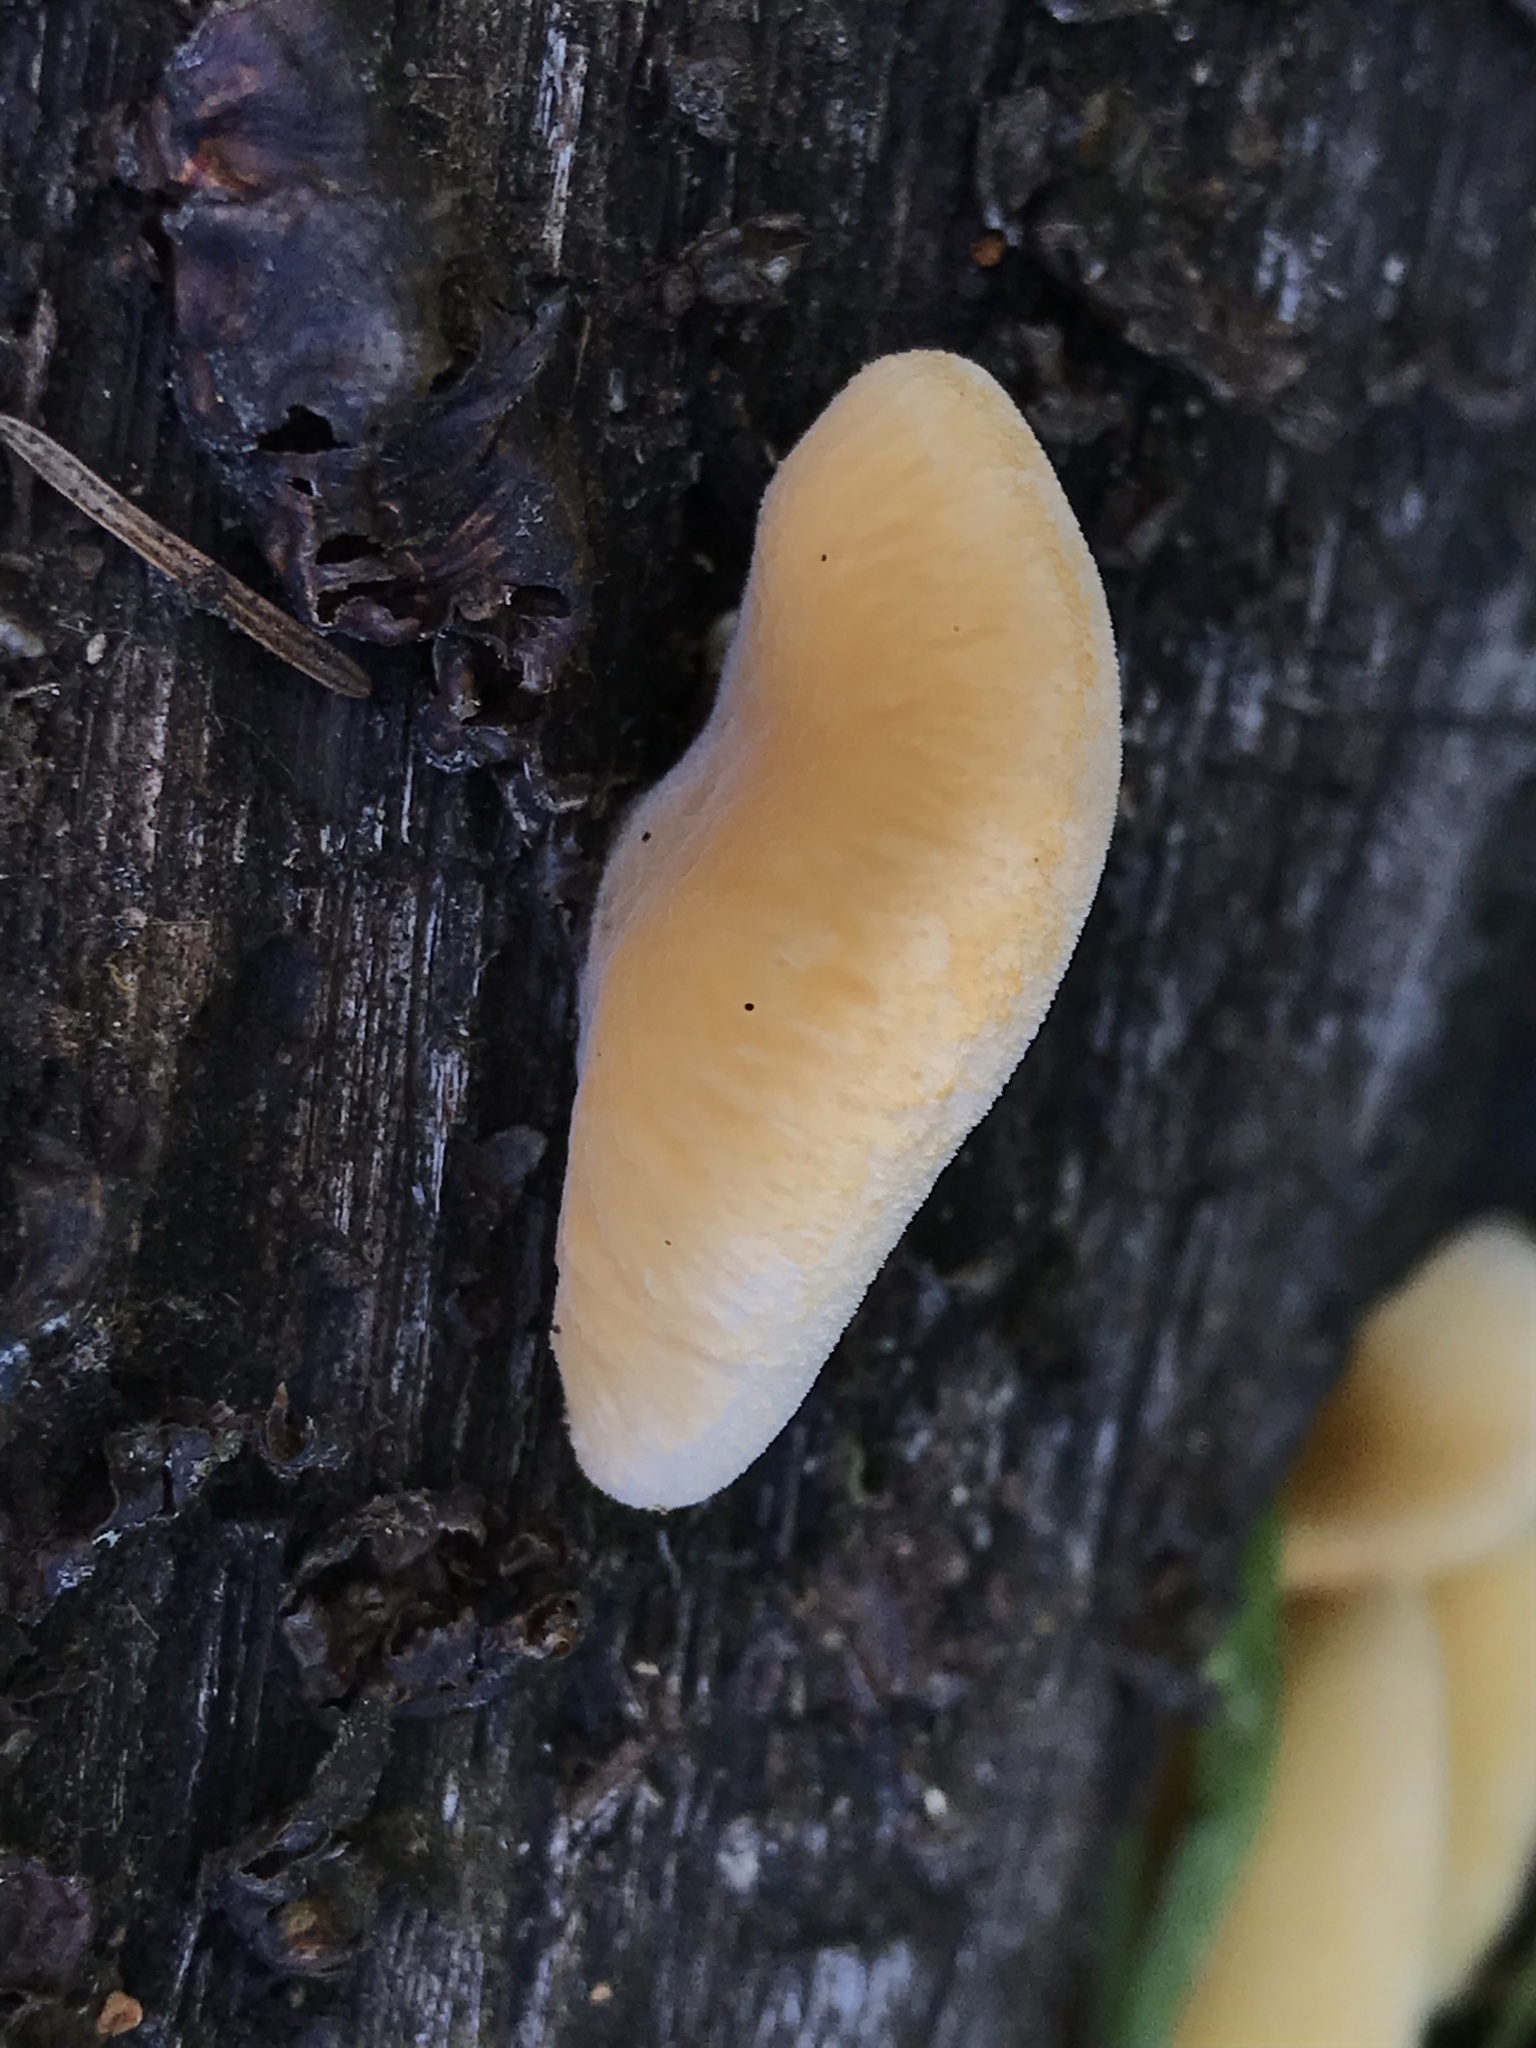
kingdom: Fungi
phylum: Basidiomycota
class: Agaricomycetes
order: Agaricales
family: Phyllotopsidaceae
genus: Phyllotopsis
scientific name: Phyllotopsis nidulans
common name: Orange mock oyster
